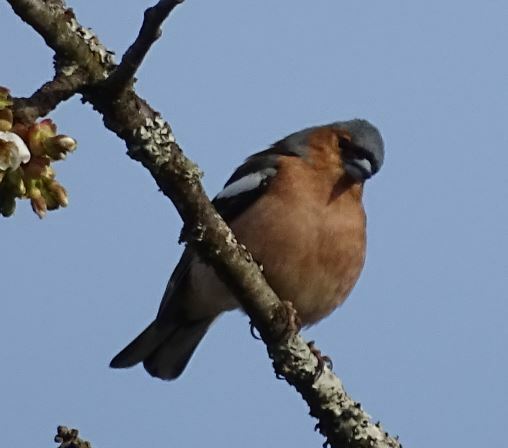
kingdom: Animalia
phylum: Chordata
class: Aves
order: Passeriformes
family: Fringillidae
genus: Fringilla
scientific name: Fringilla coelebs
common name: Common chaffinch
